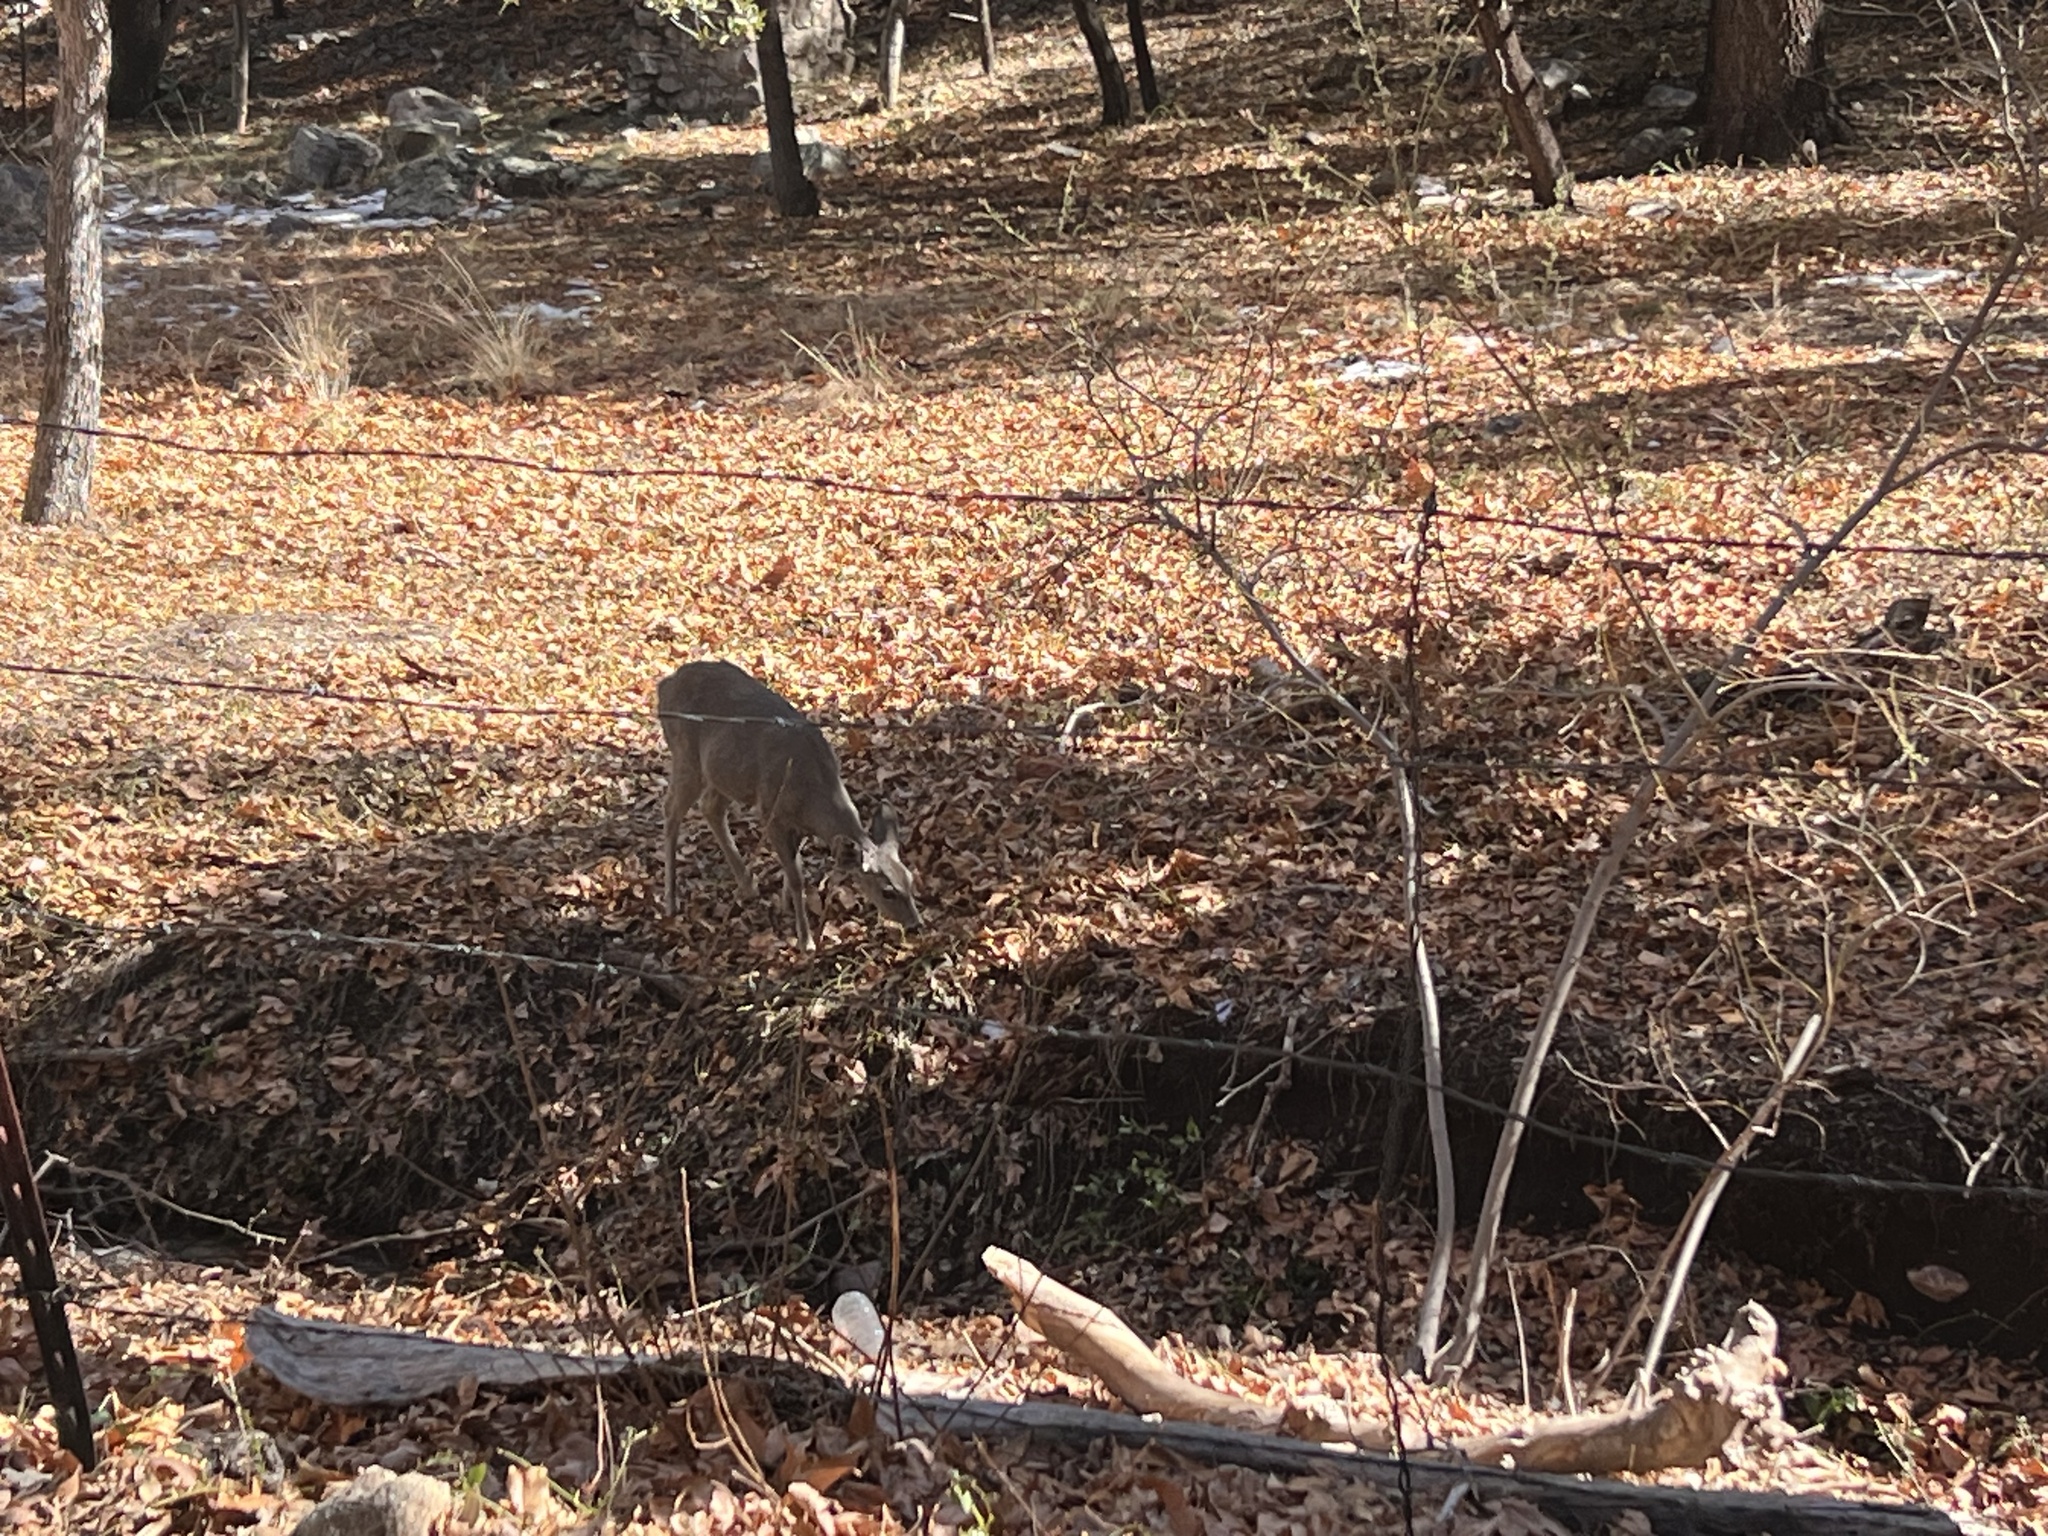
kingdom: Animalia
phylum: Chordata
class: Mammalia
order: Artiodactyla
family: Cervidae
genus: Odocoileus
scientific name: Odocoileus virginianus
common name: White-tailed deer
